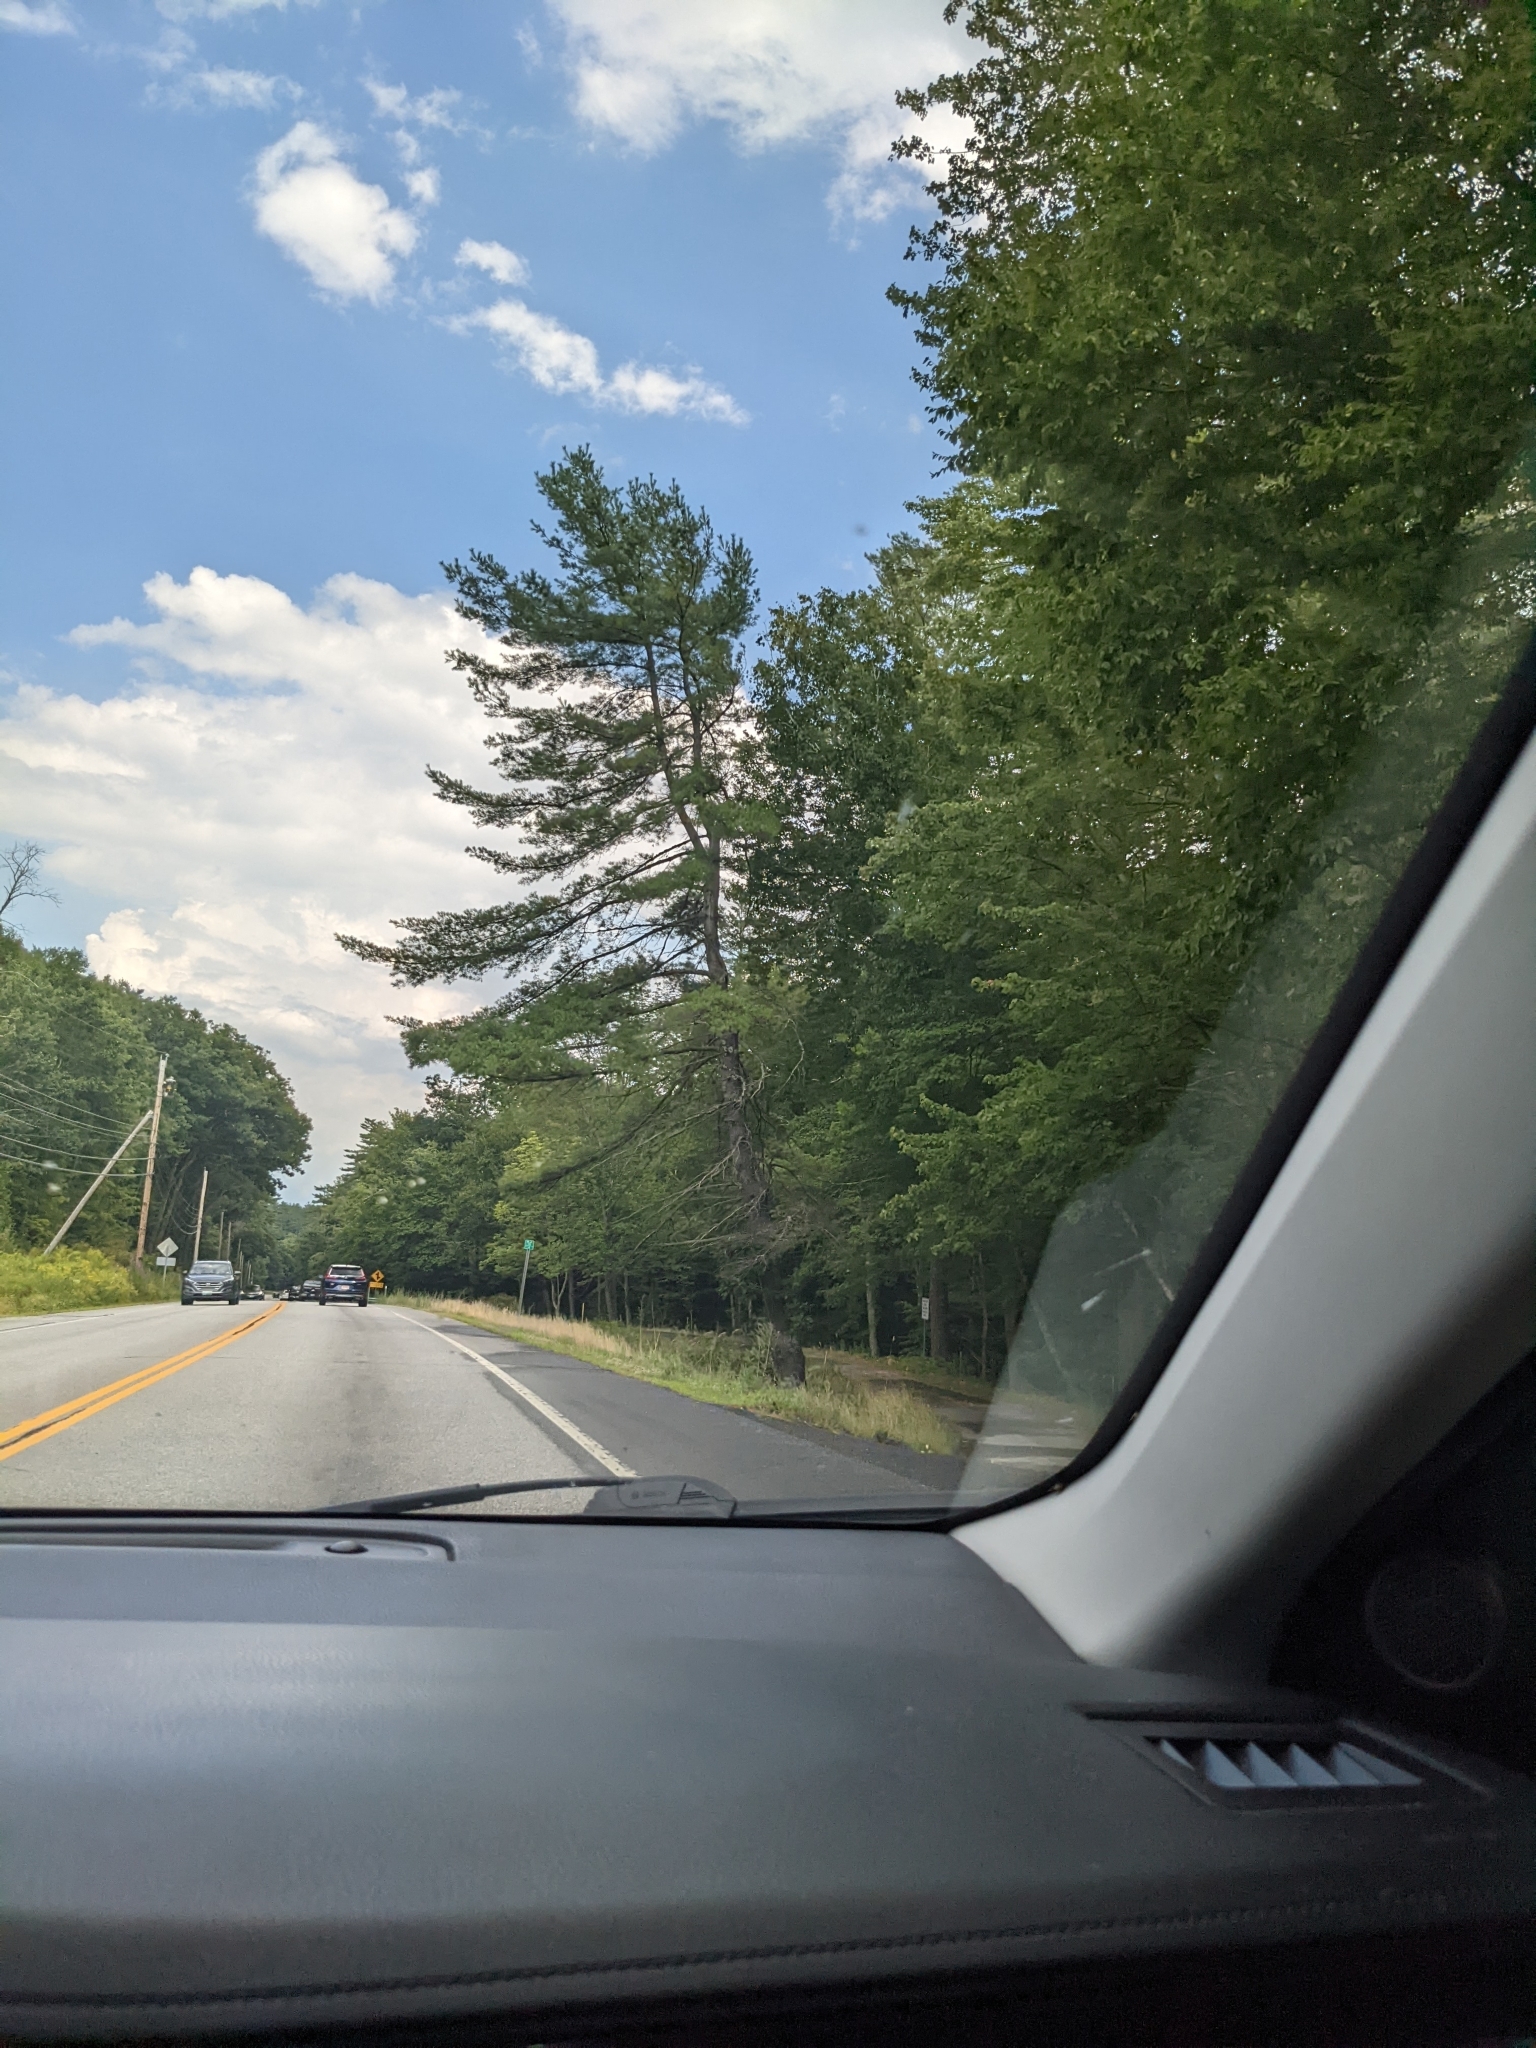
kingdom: Plantae
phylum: Tracheophyta
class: Pinopsida
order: Pinales
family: Pinaceae
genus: Pinus
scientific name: Pinus strobus
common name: Weymouth pine
